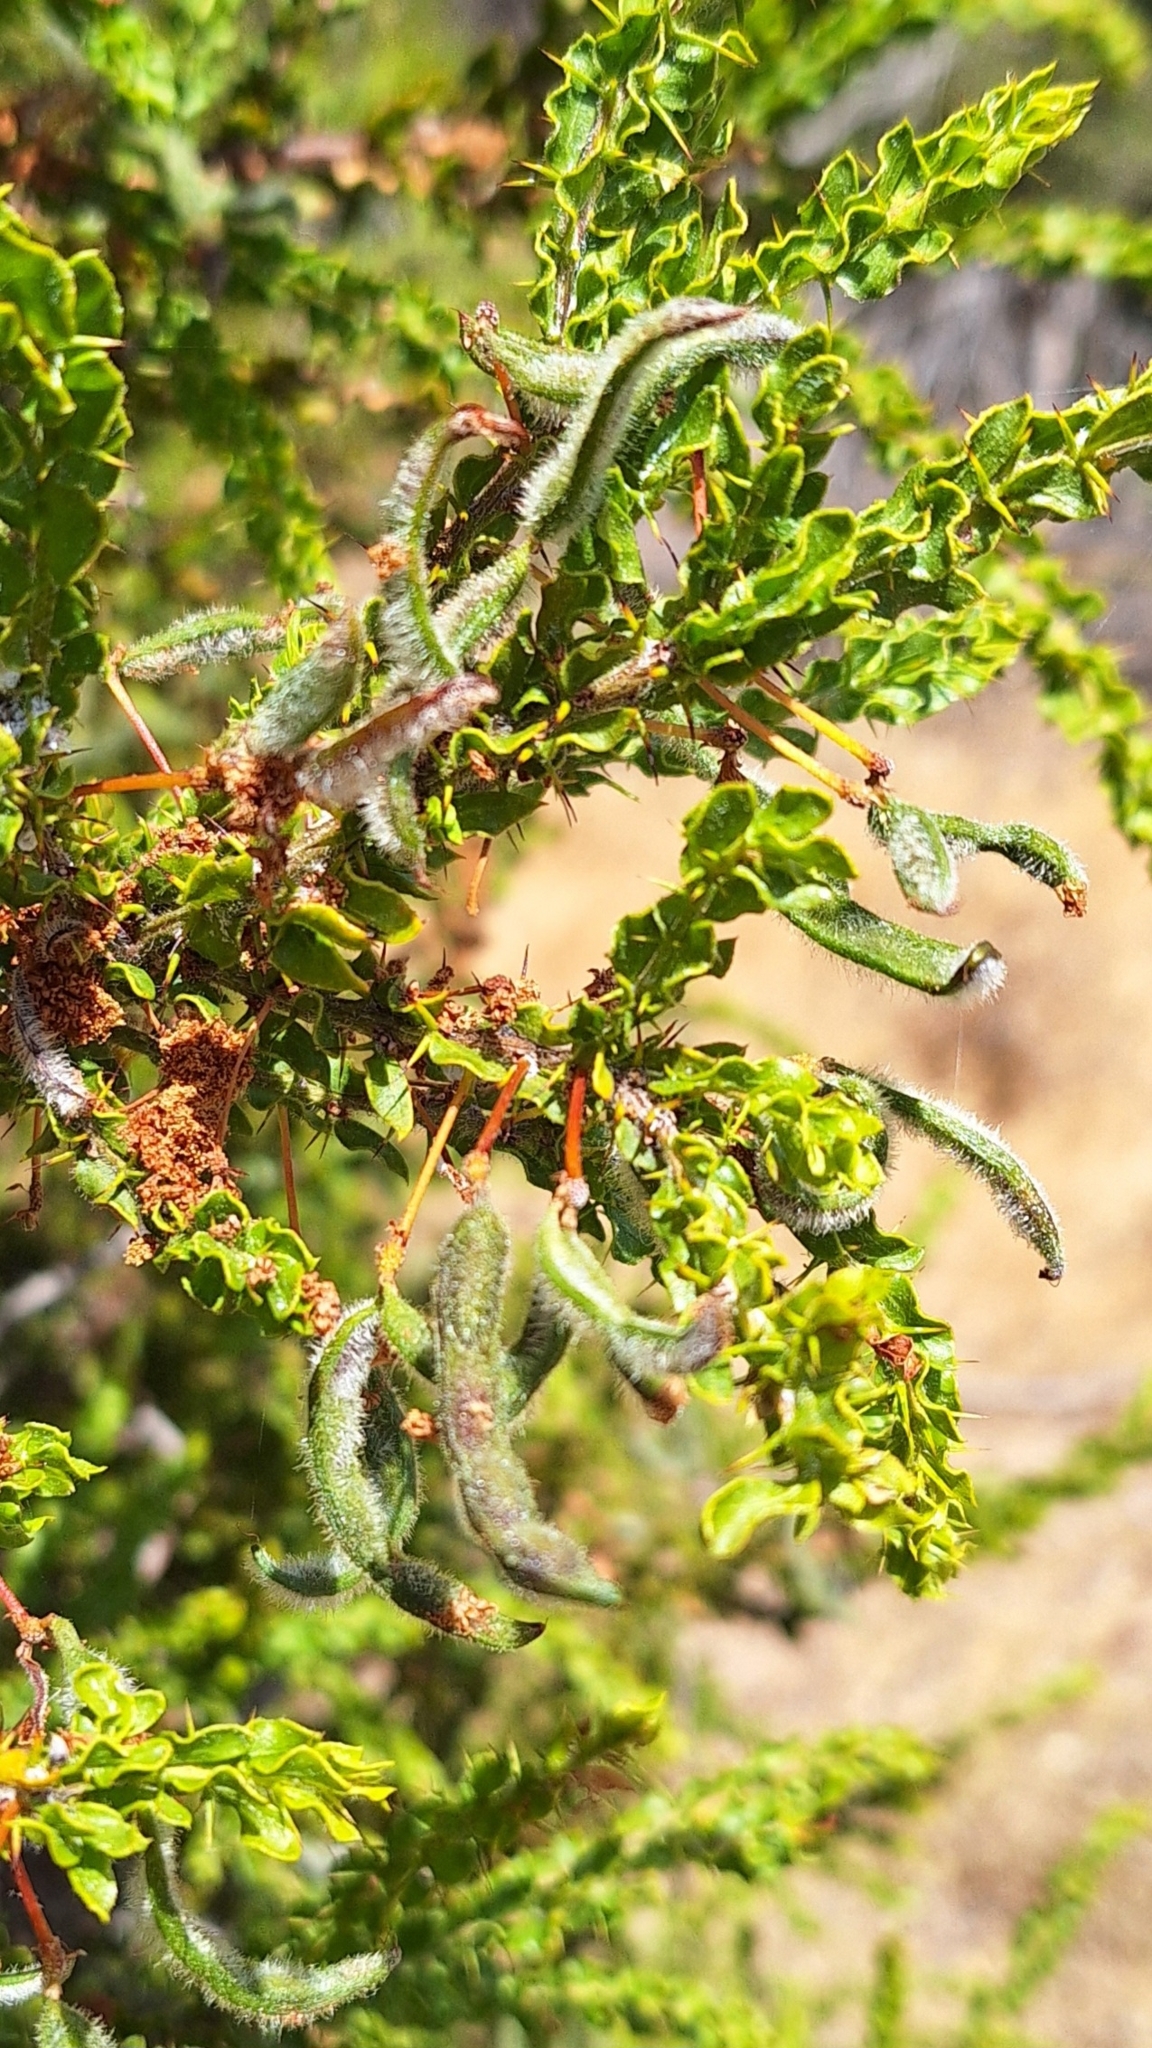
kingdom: Plantae
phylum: Tracheophyta
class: Magnoliopsida
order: Fabales
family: Fabaceae
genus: Acacia
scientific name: Acacia paradoxa
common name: Paradox acacia
